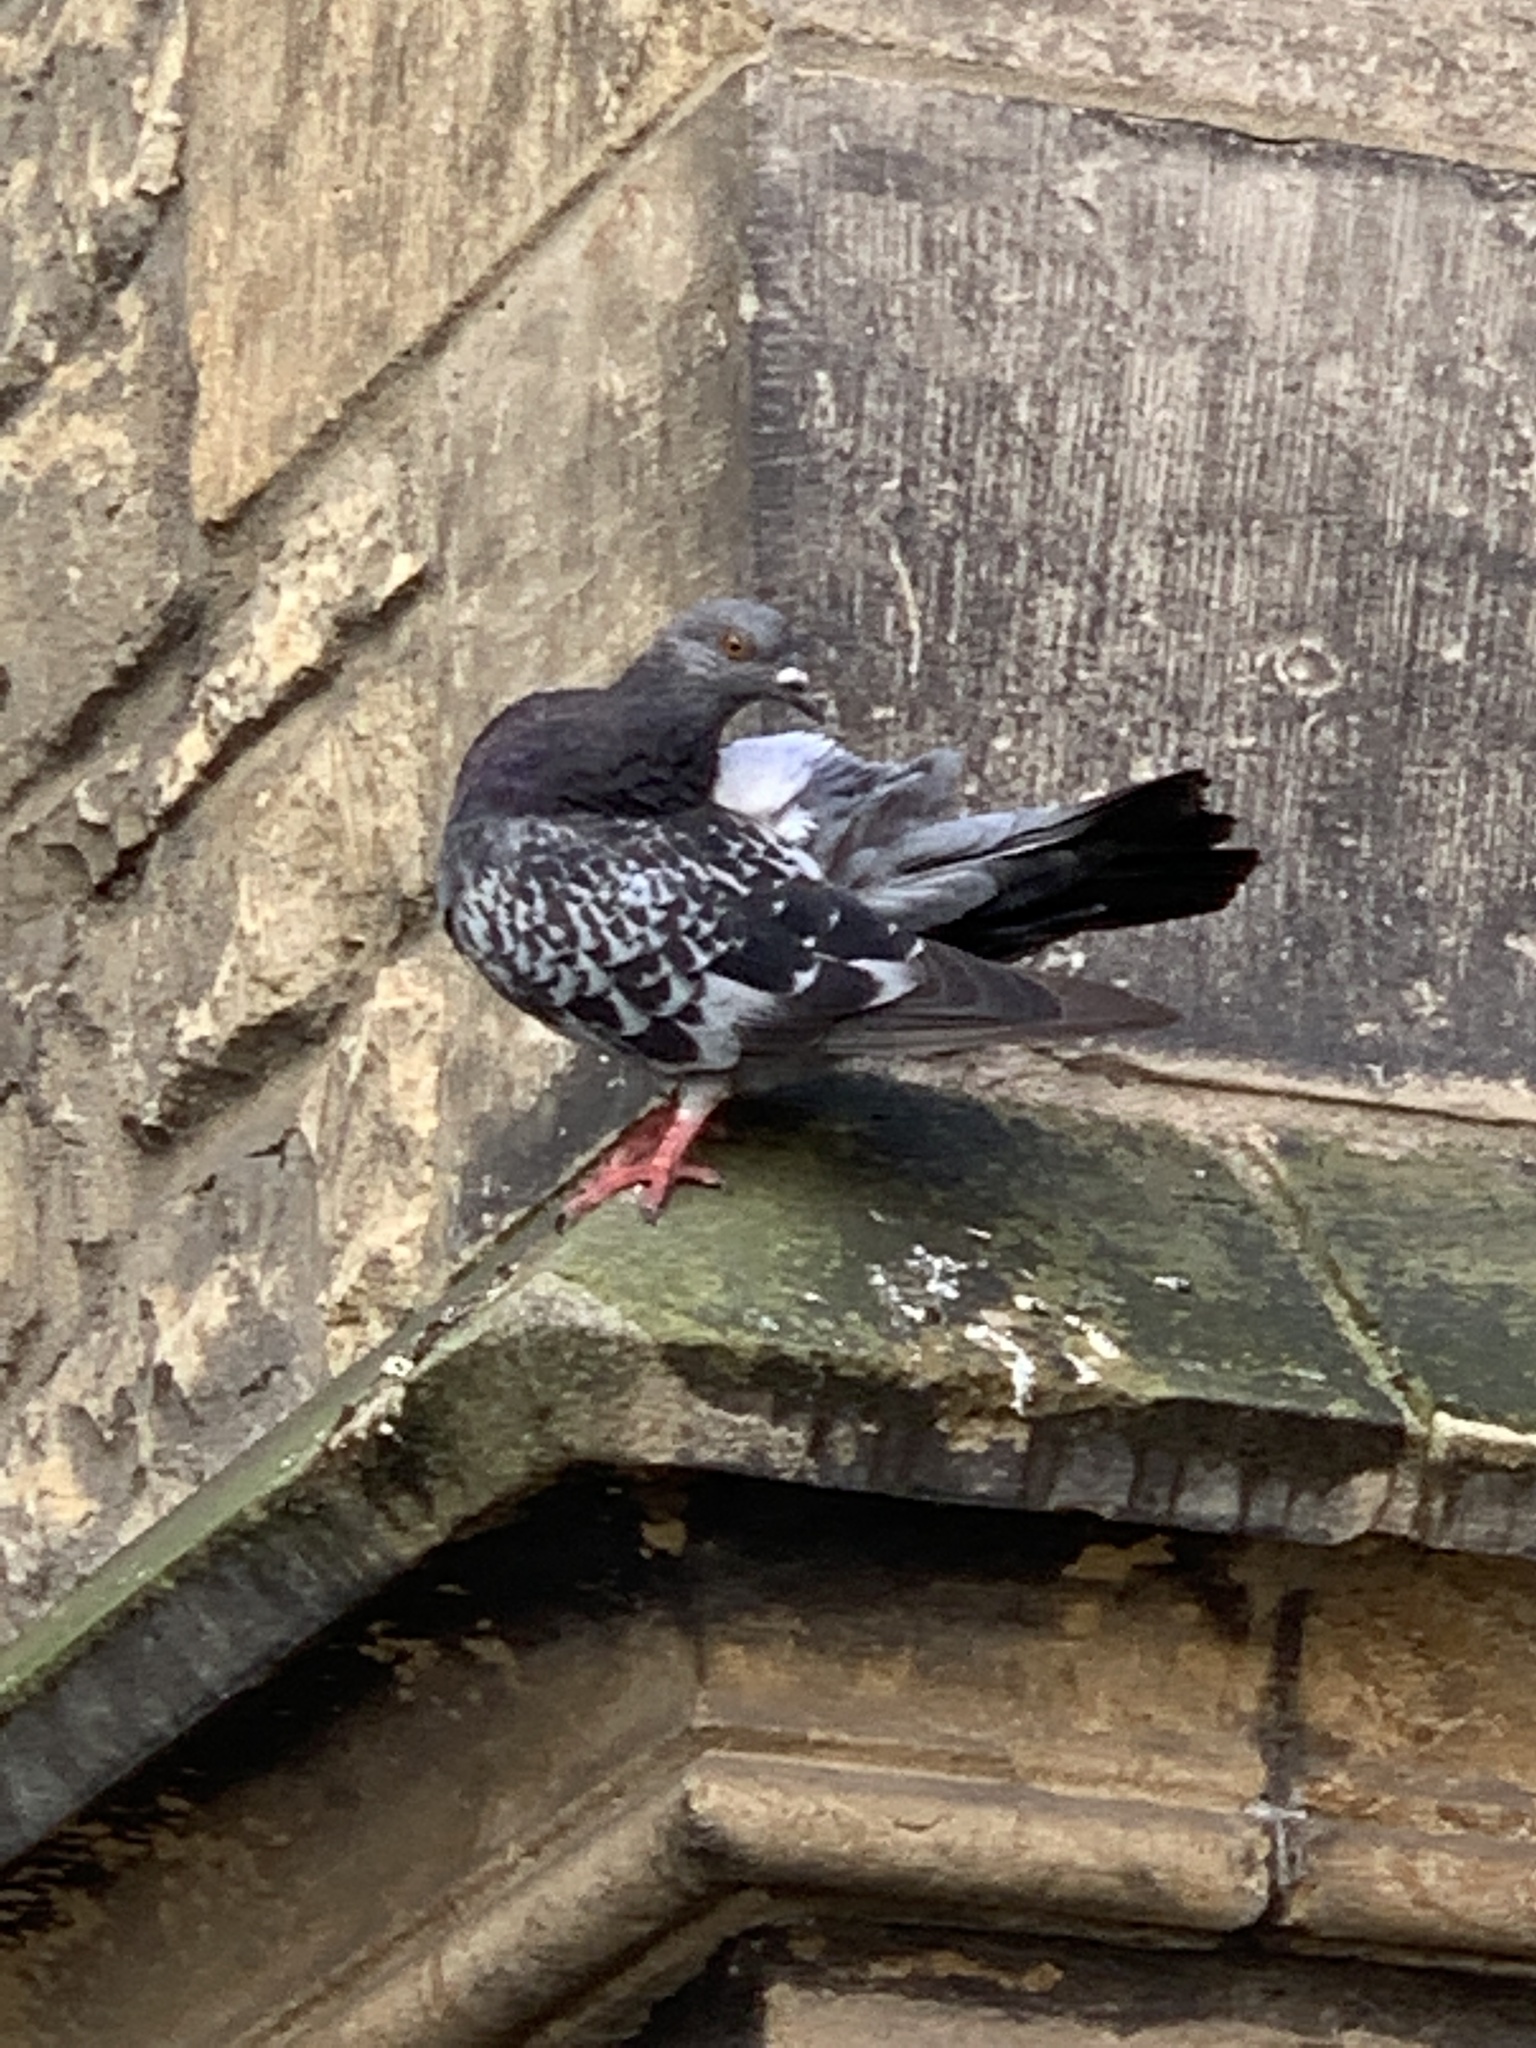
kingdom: Animalia
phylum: Chordata
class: Aves
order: Columbiformes
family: Columbidae
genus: Columba
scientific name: Columba livia
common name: Rock pigeon
